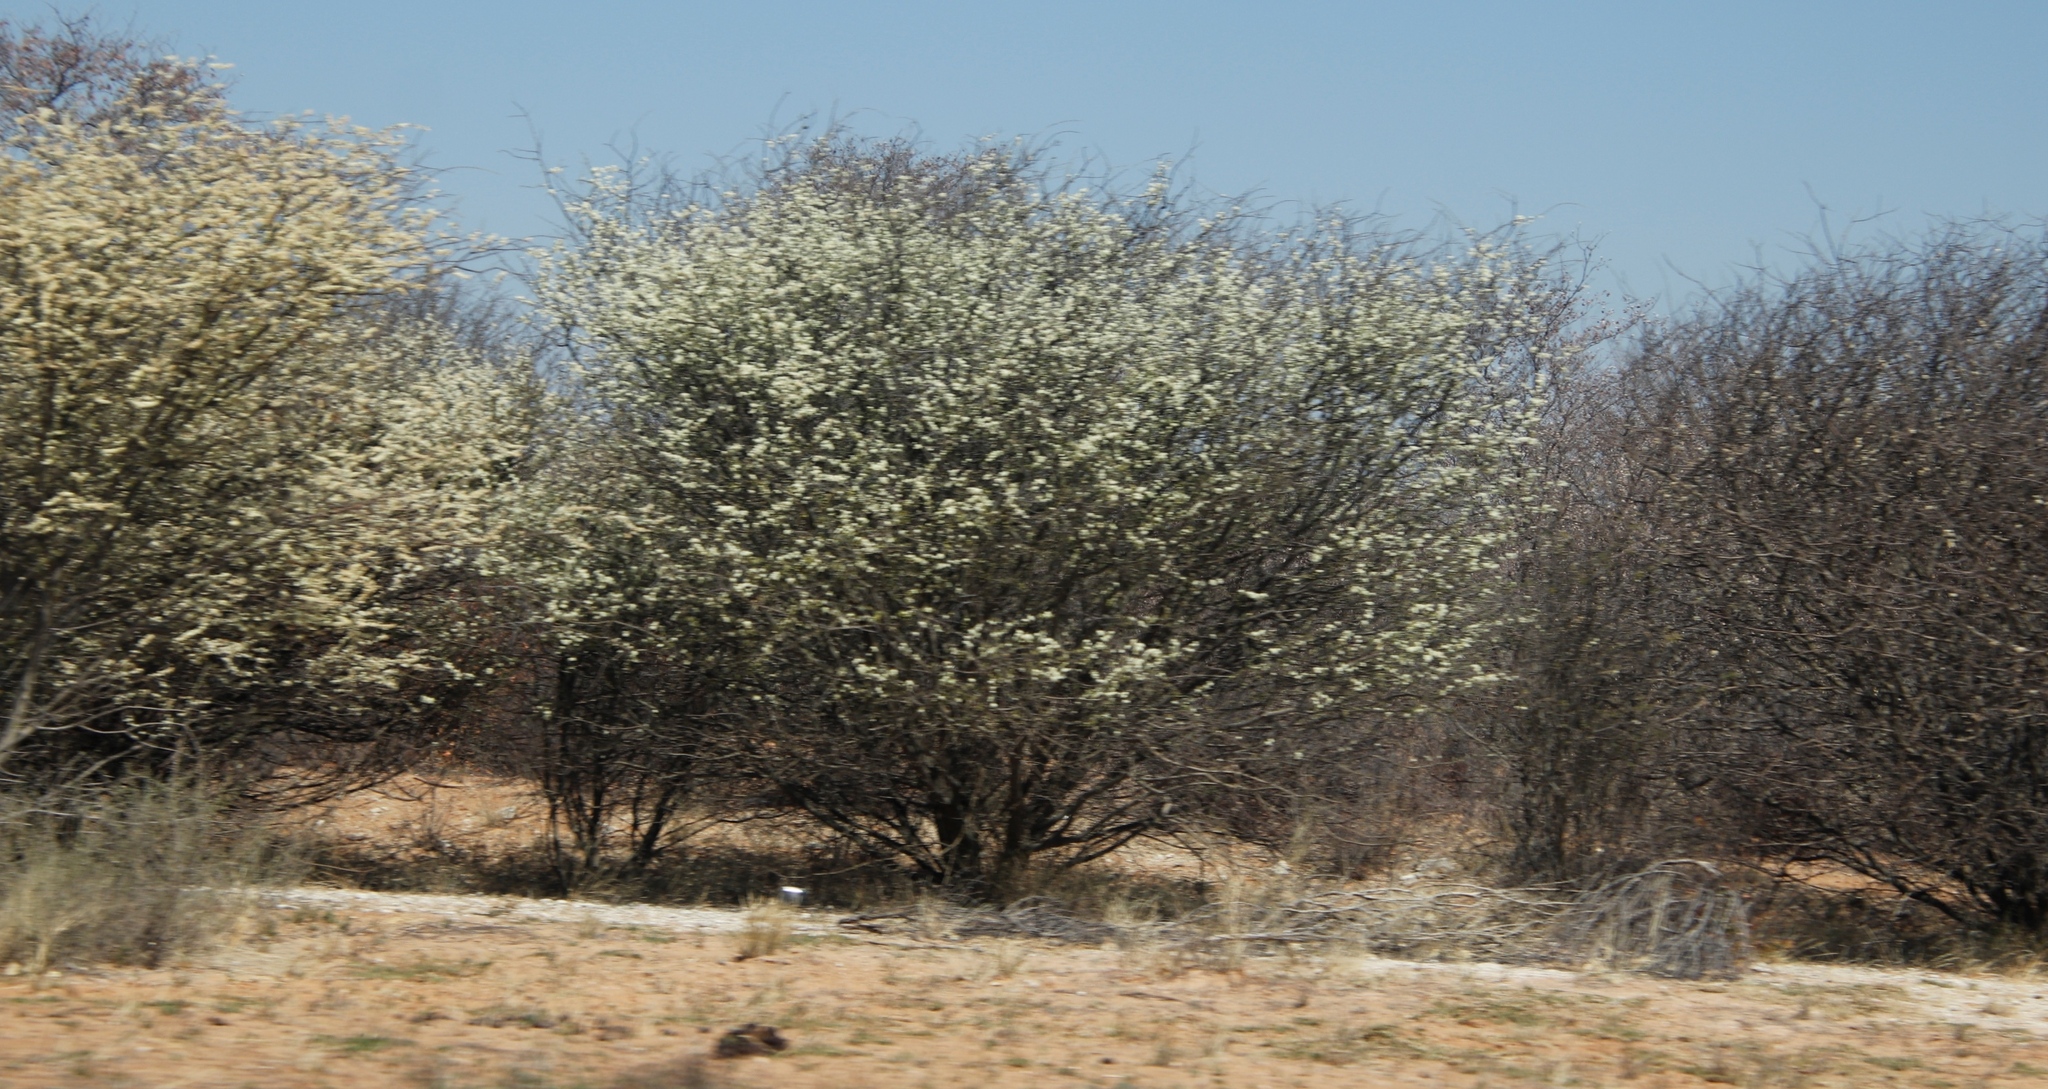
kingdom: Plantae
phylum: Tracheophyta
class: Magnoliopsida
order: Fabales
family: Fabaceae
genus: Senegalia
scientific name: Senegalia mellifera
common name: Hookthorn
